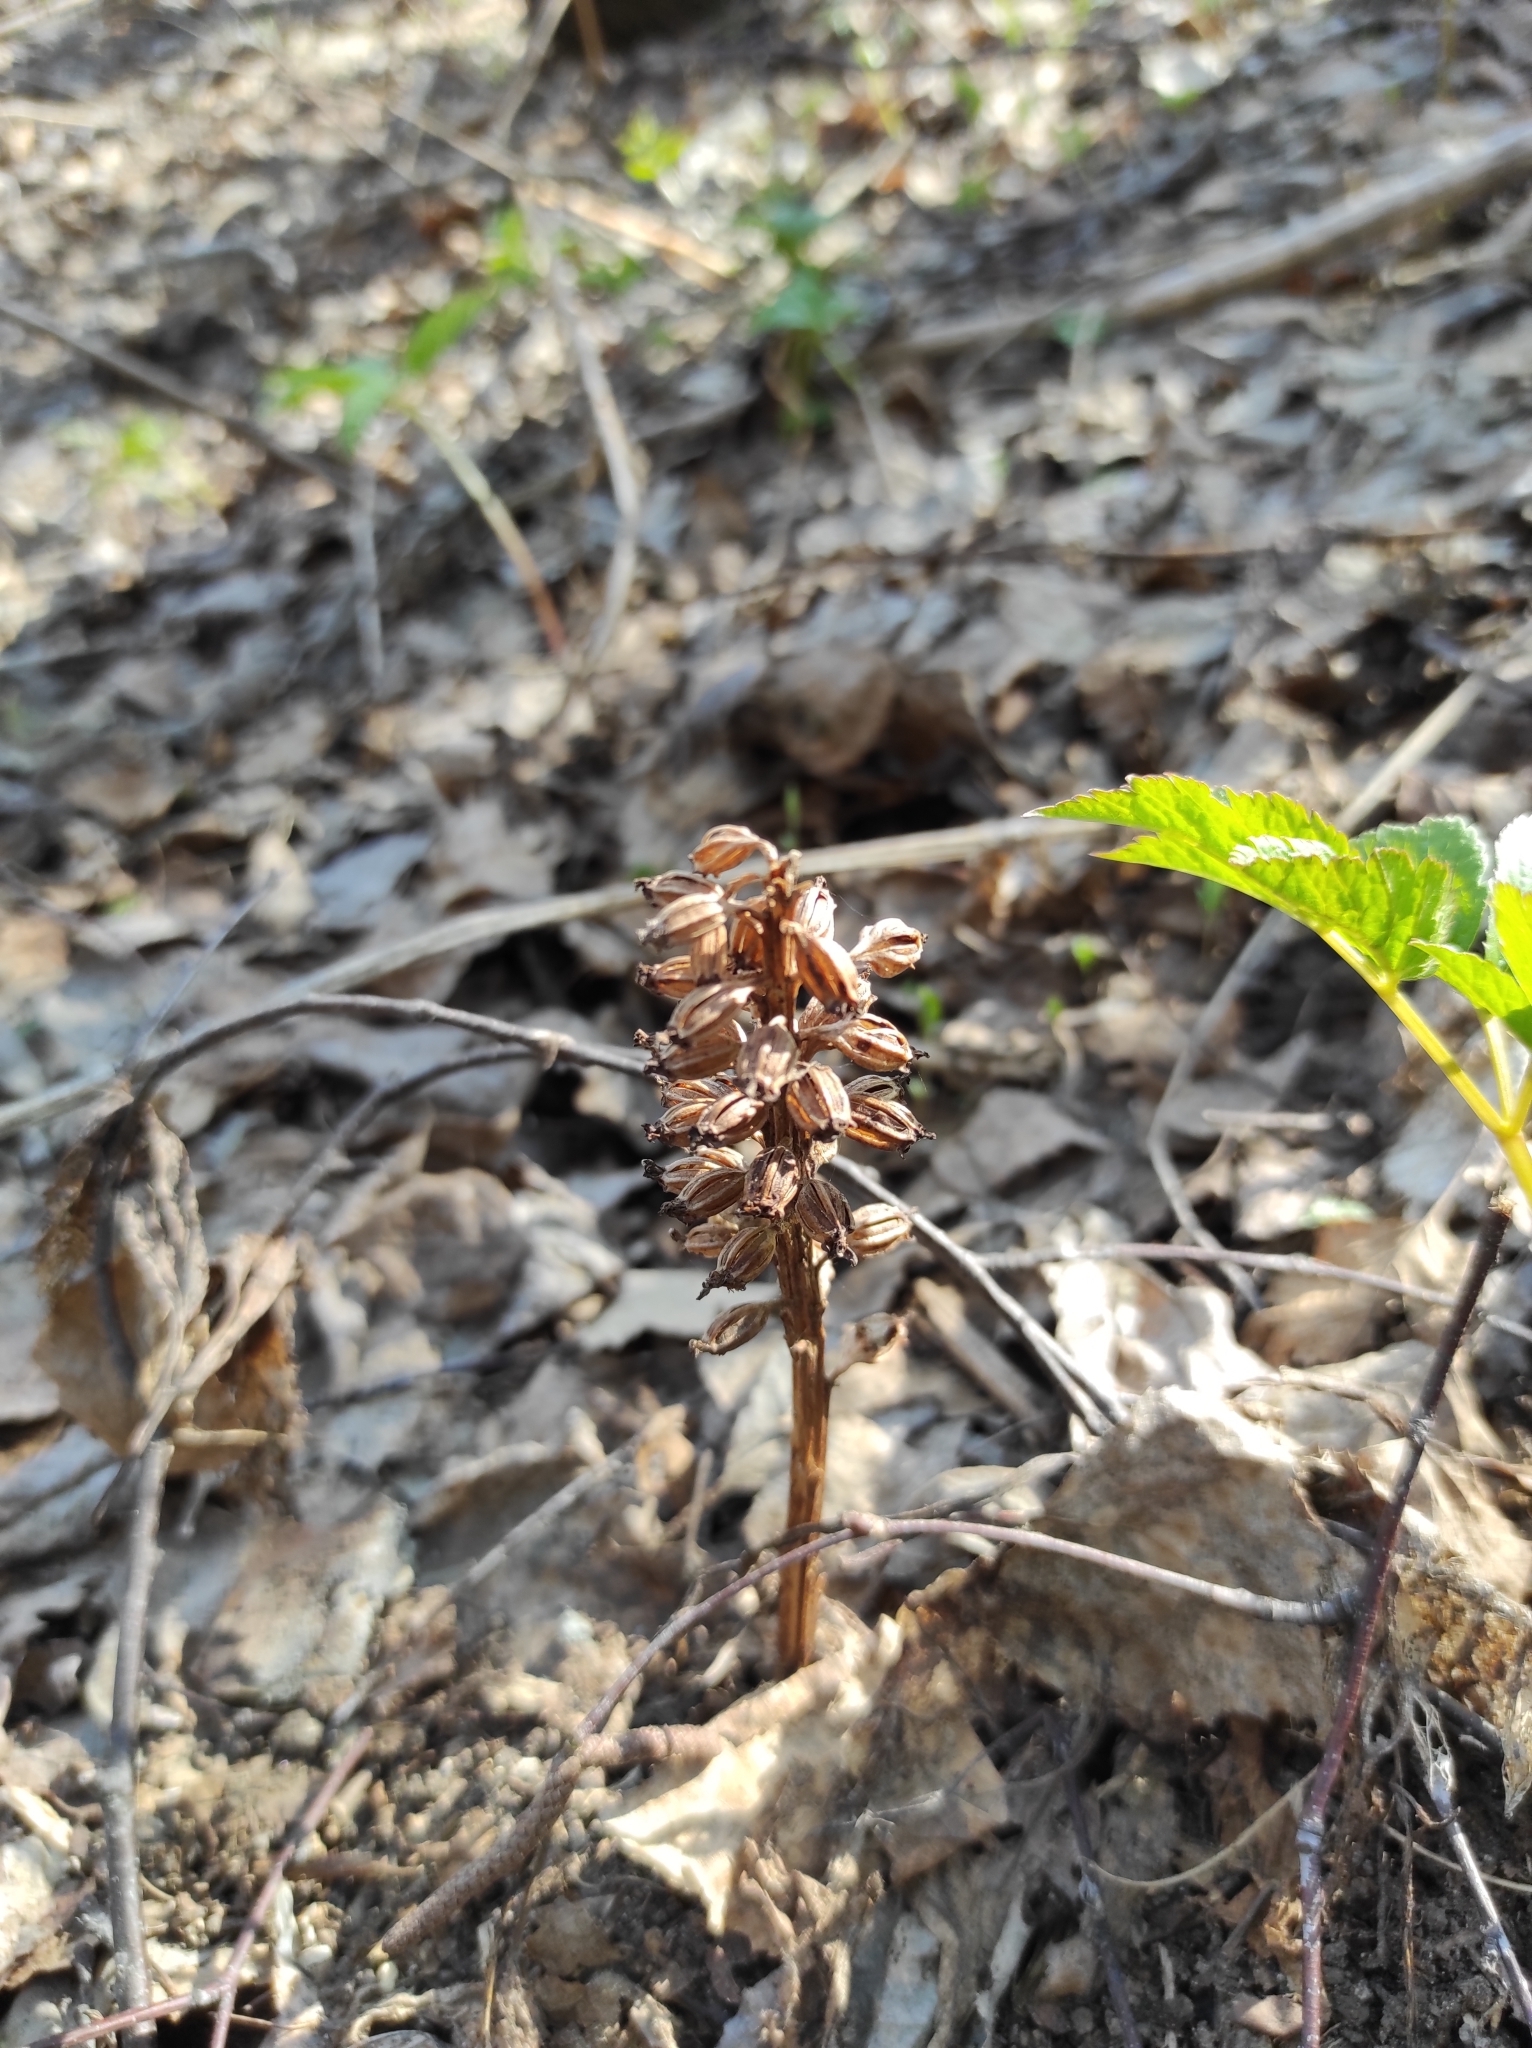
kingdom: Plantae
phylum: Tracheophyta
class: Liliopsida
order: Asparagales
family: Orchidaceae
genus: Neottia
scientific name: Neottia nidus-avis
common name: Bird's-nest orchid
